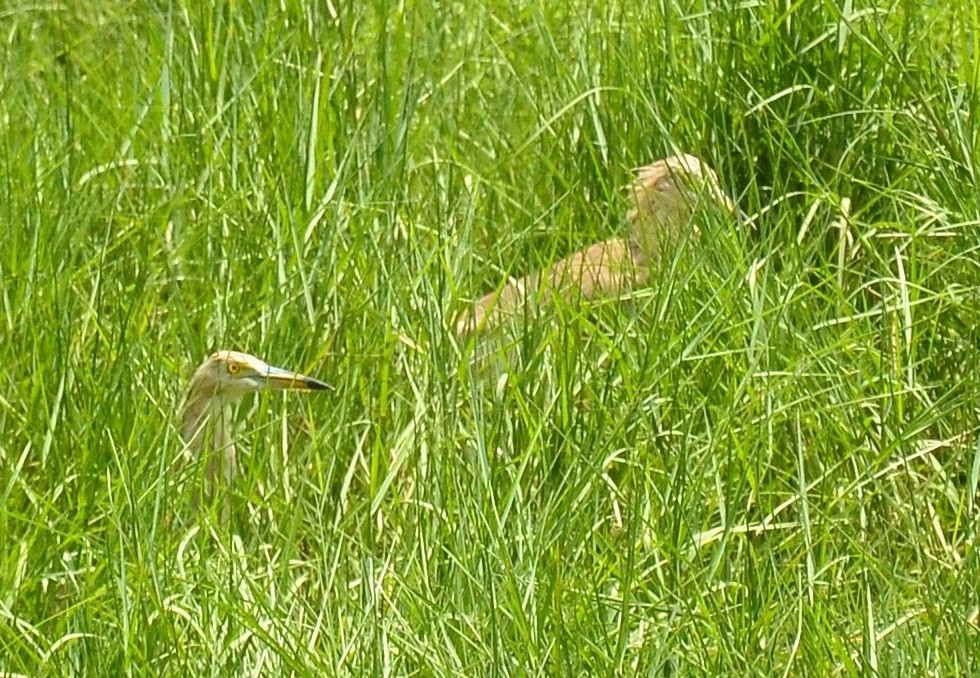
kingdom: Animalia
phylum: Chordata
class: Aves
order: Pelecaniformes
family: Ardeidae
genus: Ardeola
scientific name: Ardeola grayii
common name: Indian pond heron
